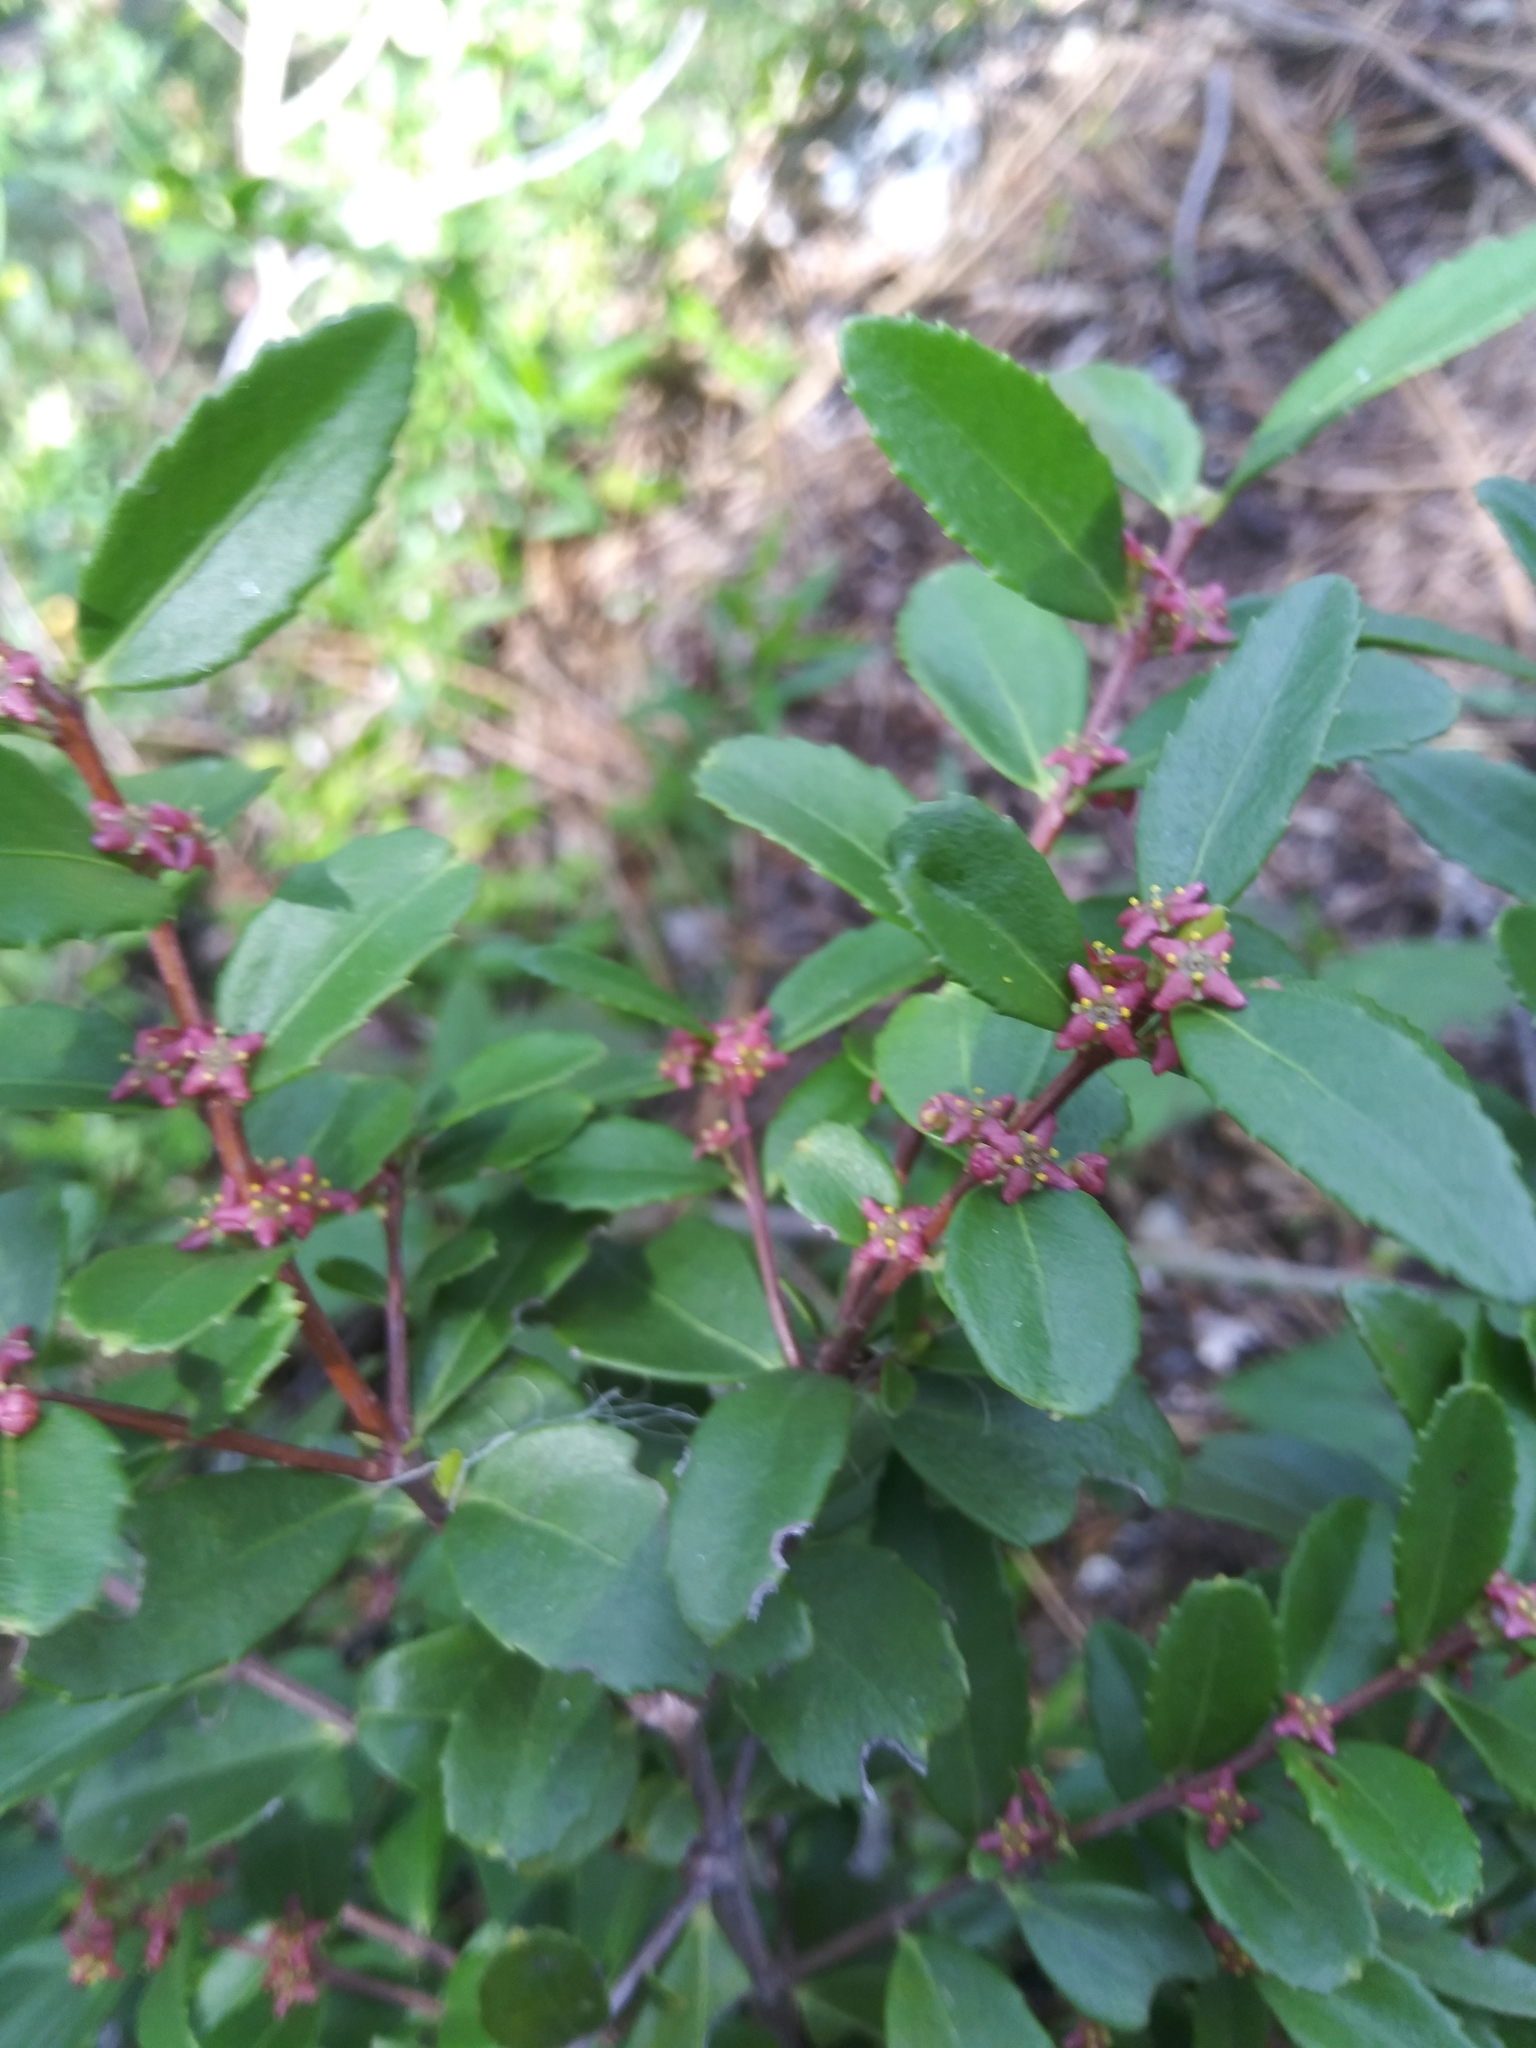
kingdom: Plantae
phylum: Tracheophyta
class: Magnoliopsida
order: Celastrales
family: Celastraceae
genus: Paxistima
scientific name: Paxistima myrsinites
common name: Mountain-lover
